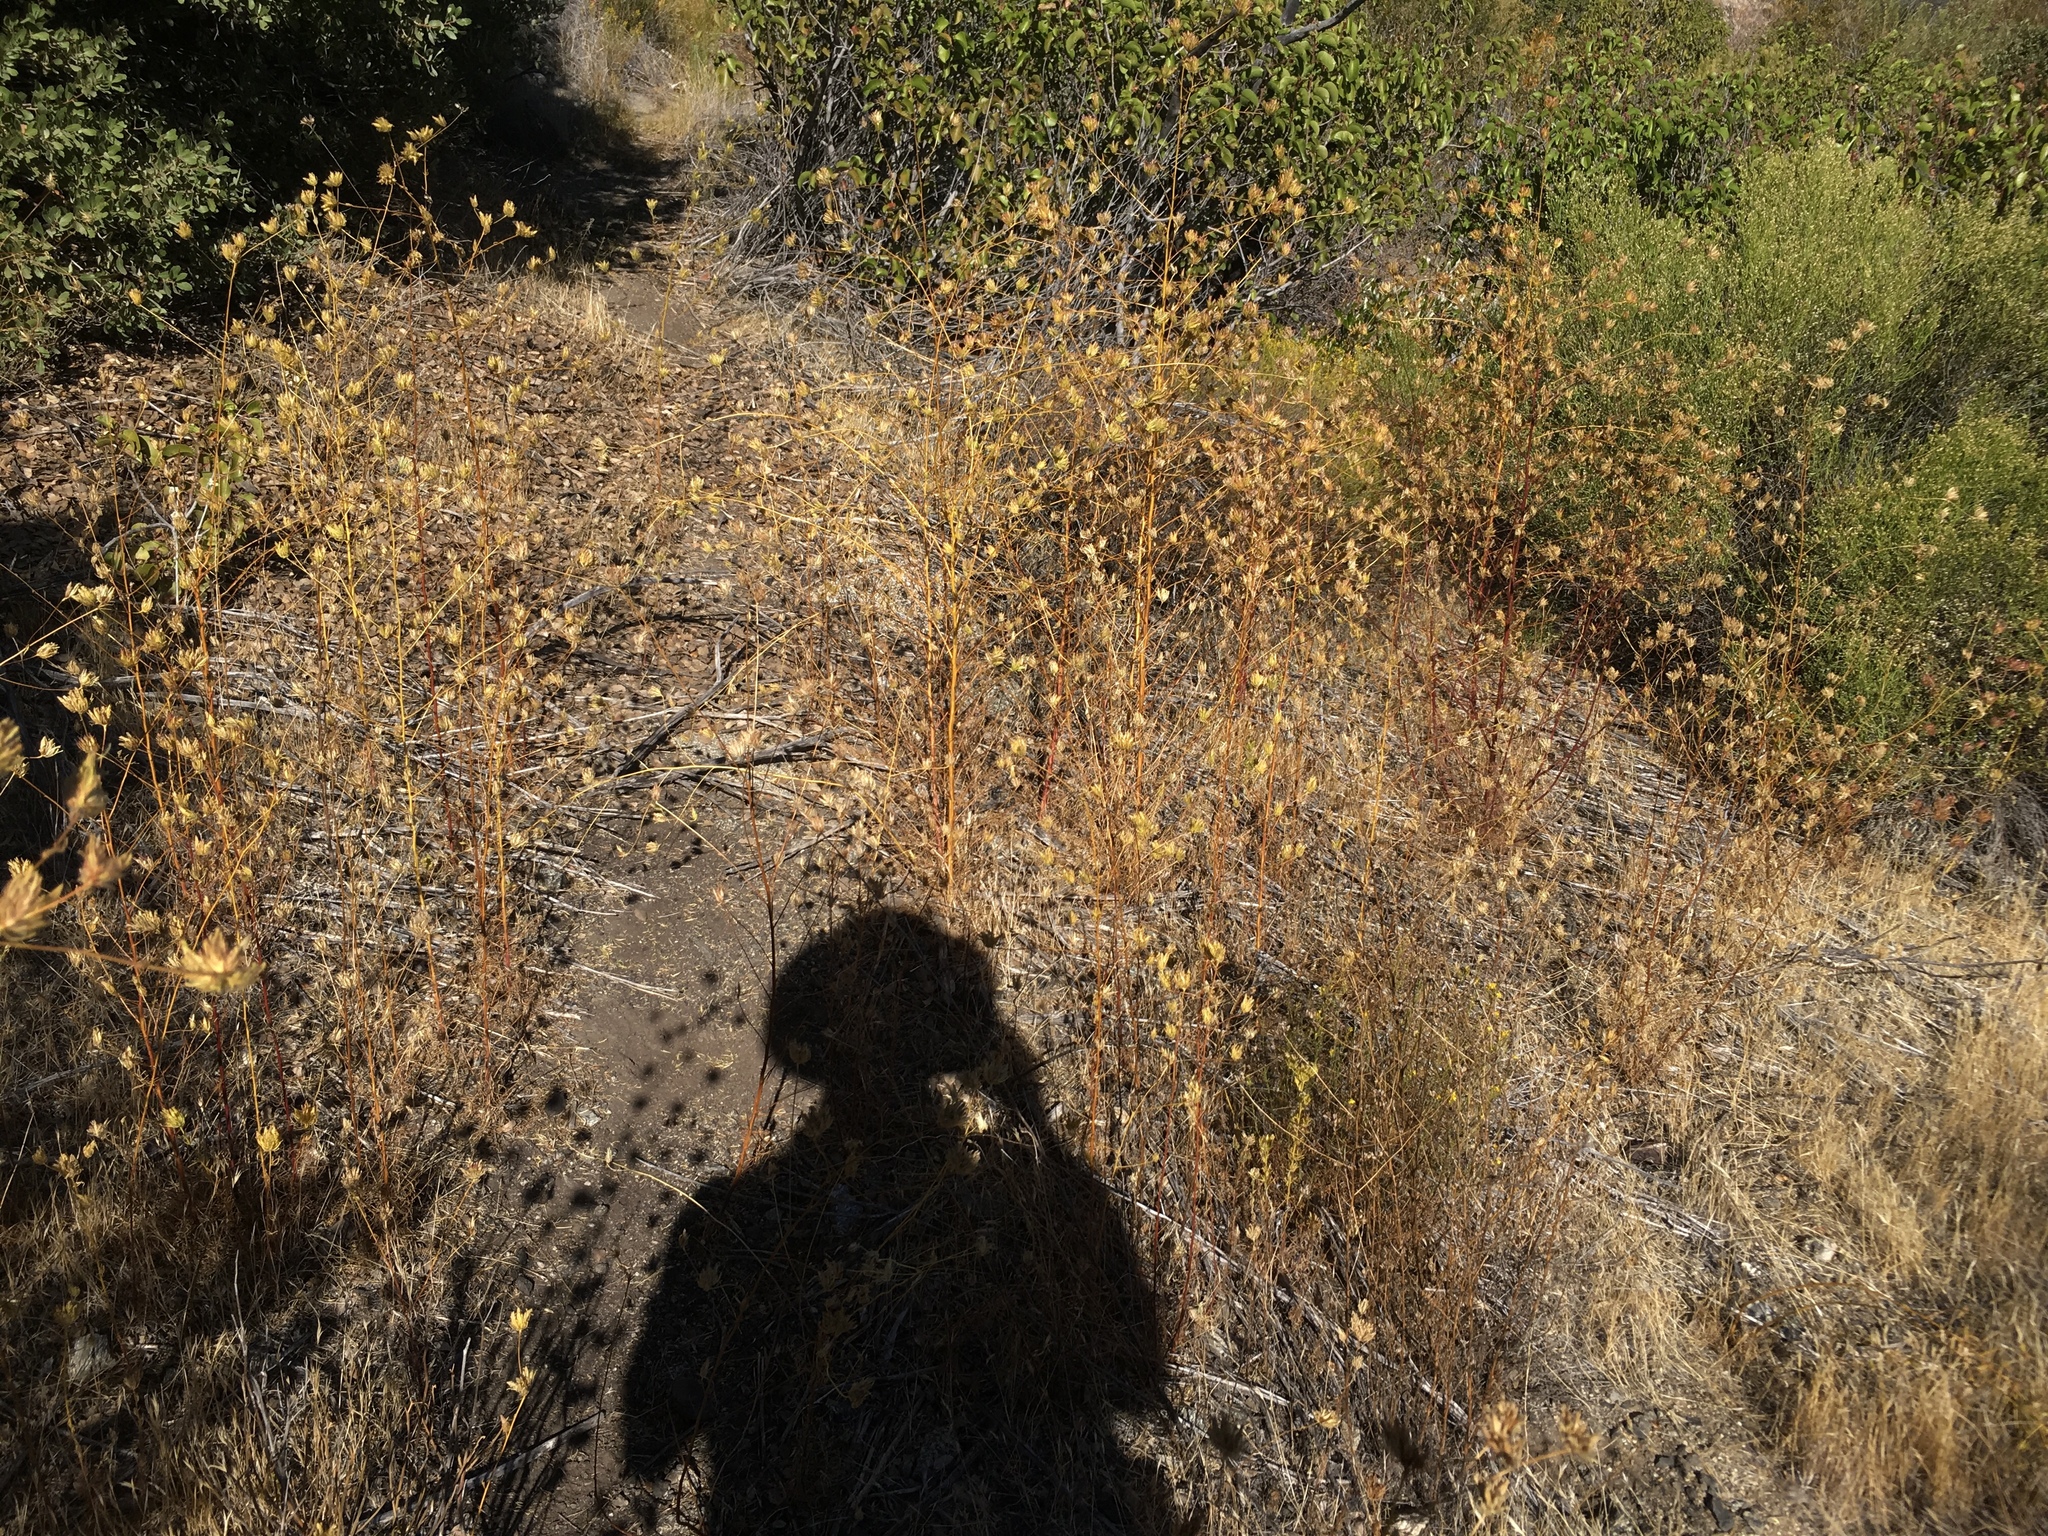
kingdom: Plantae
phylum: Tracheophyta
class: Magnoliopsida
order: Lamiales
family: Orobanchaceae
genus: Cordylanthus
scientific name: Cordylanthus rigidus
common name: Stiff-branch bird's-beak
